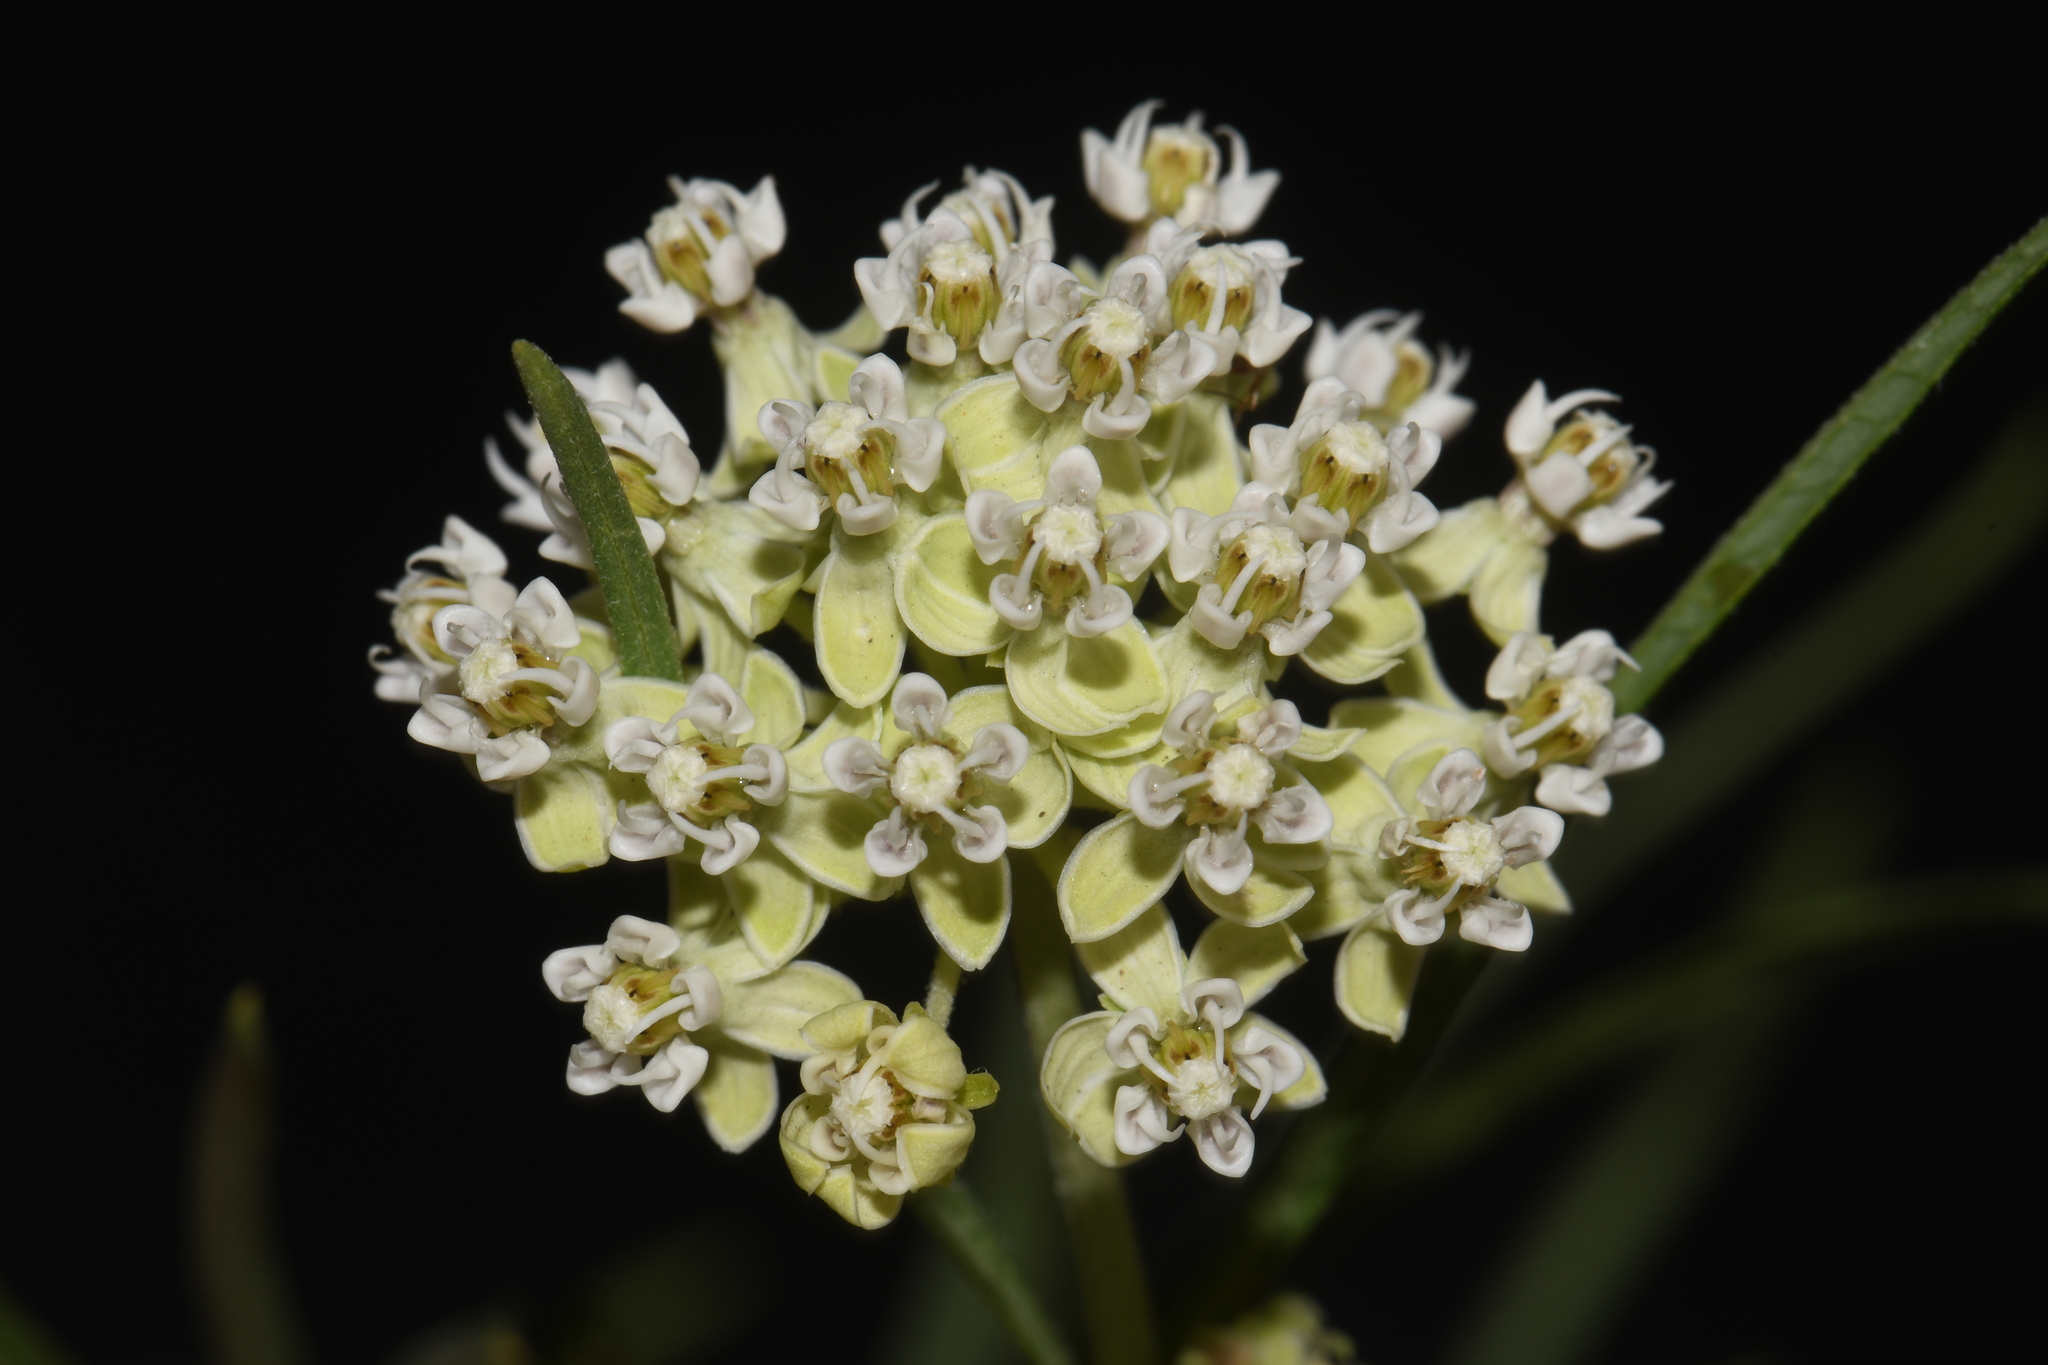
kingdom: Plantae
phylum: Tracheophyta
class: Magnoliopsida
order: Gentianales
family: Apocynaceae
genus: Asclepias
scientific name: Asclepias subverticillata
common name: Horsetail milkweed
